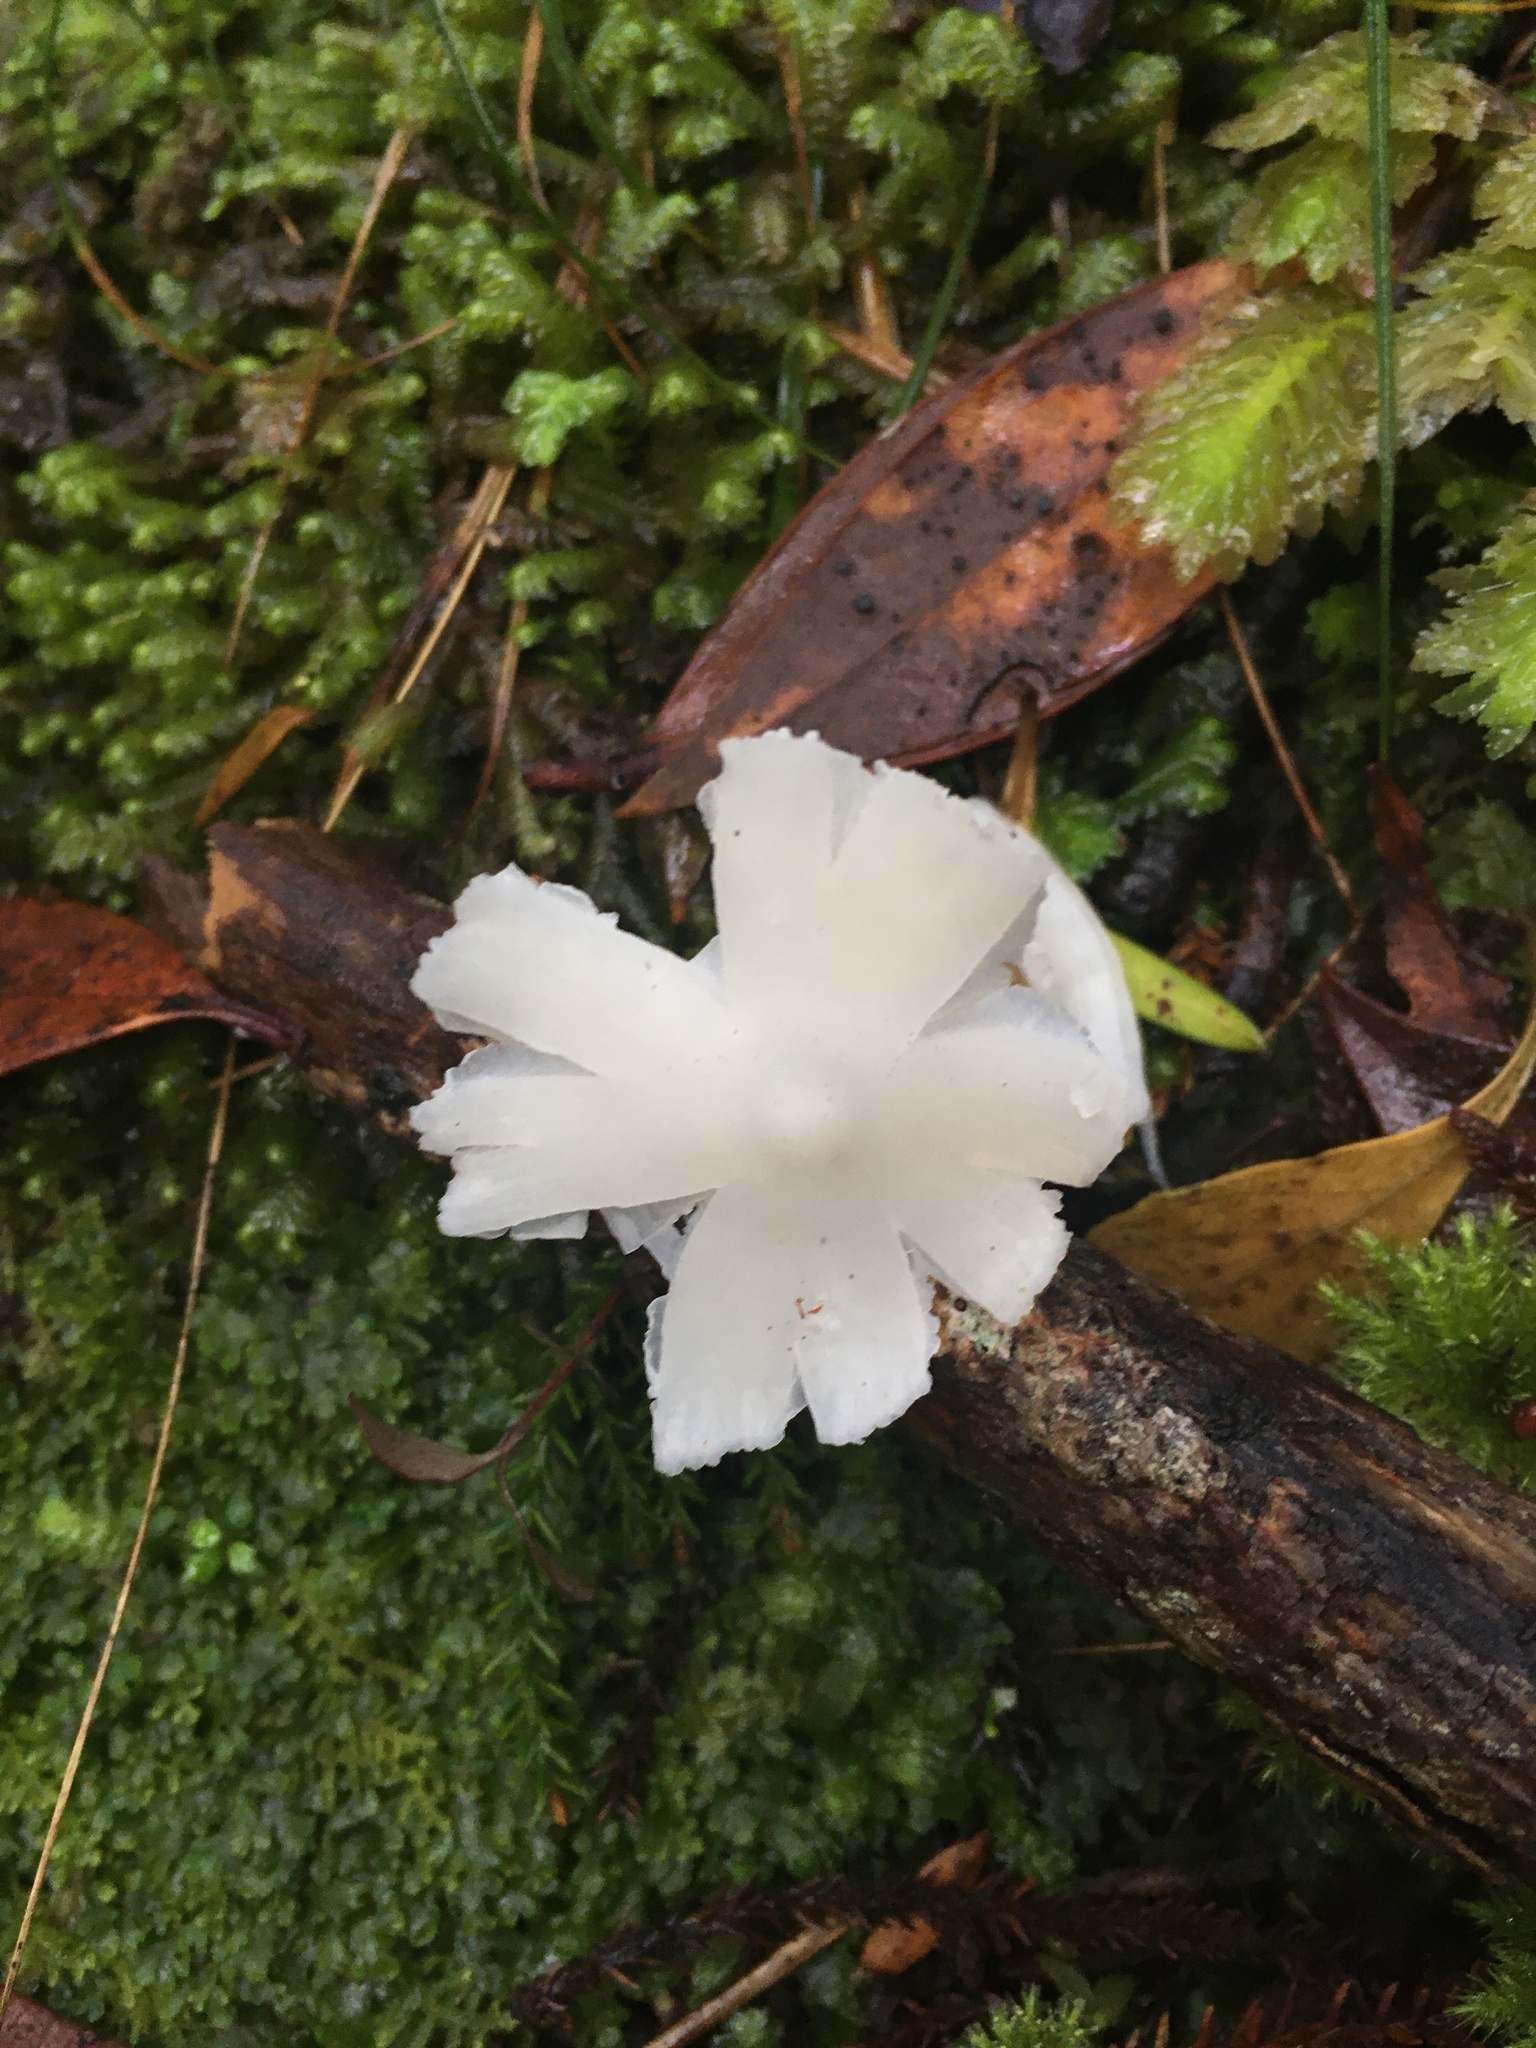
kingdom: Fungi
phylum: Basidiomycota
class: Agaricomycetes
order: Agaricales
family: Hygrophoraceae
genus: Humidicutis
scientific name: Humidicutis mavis
